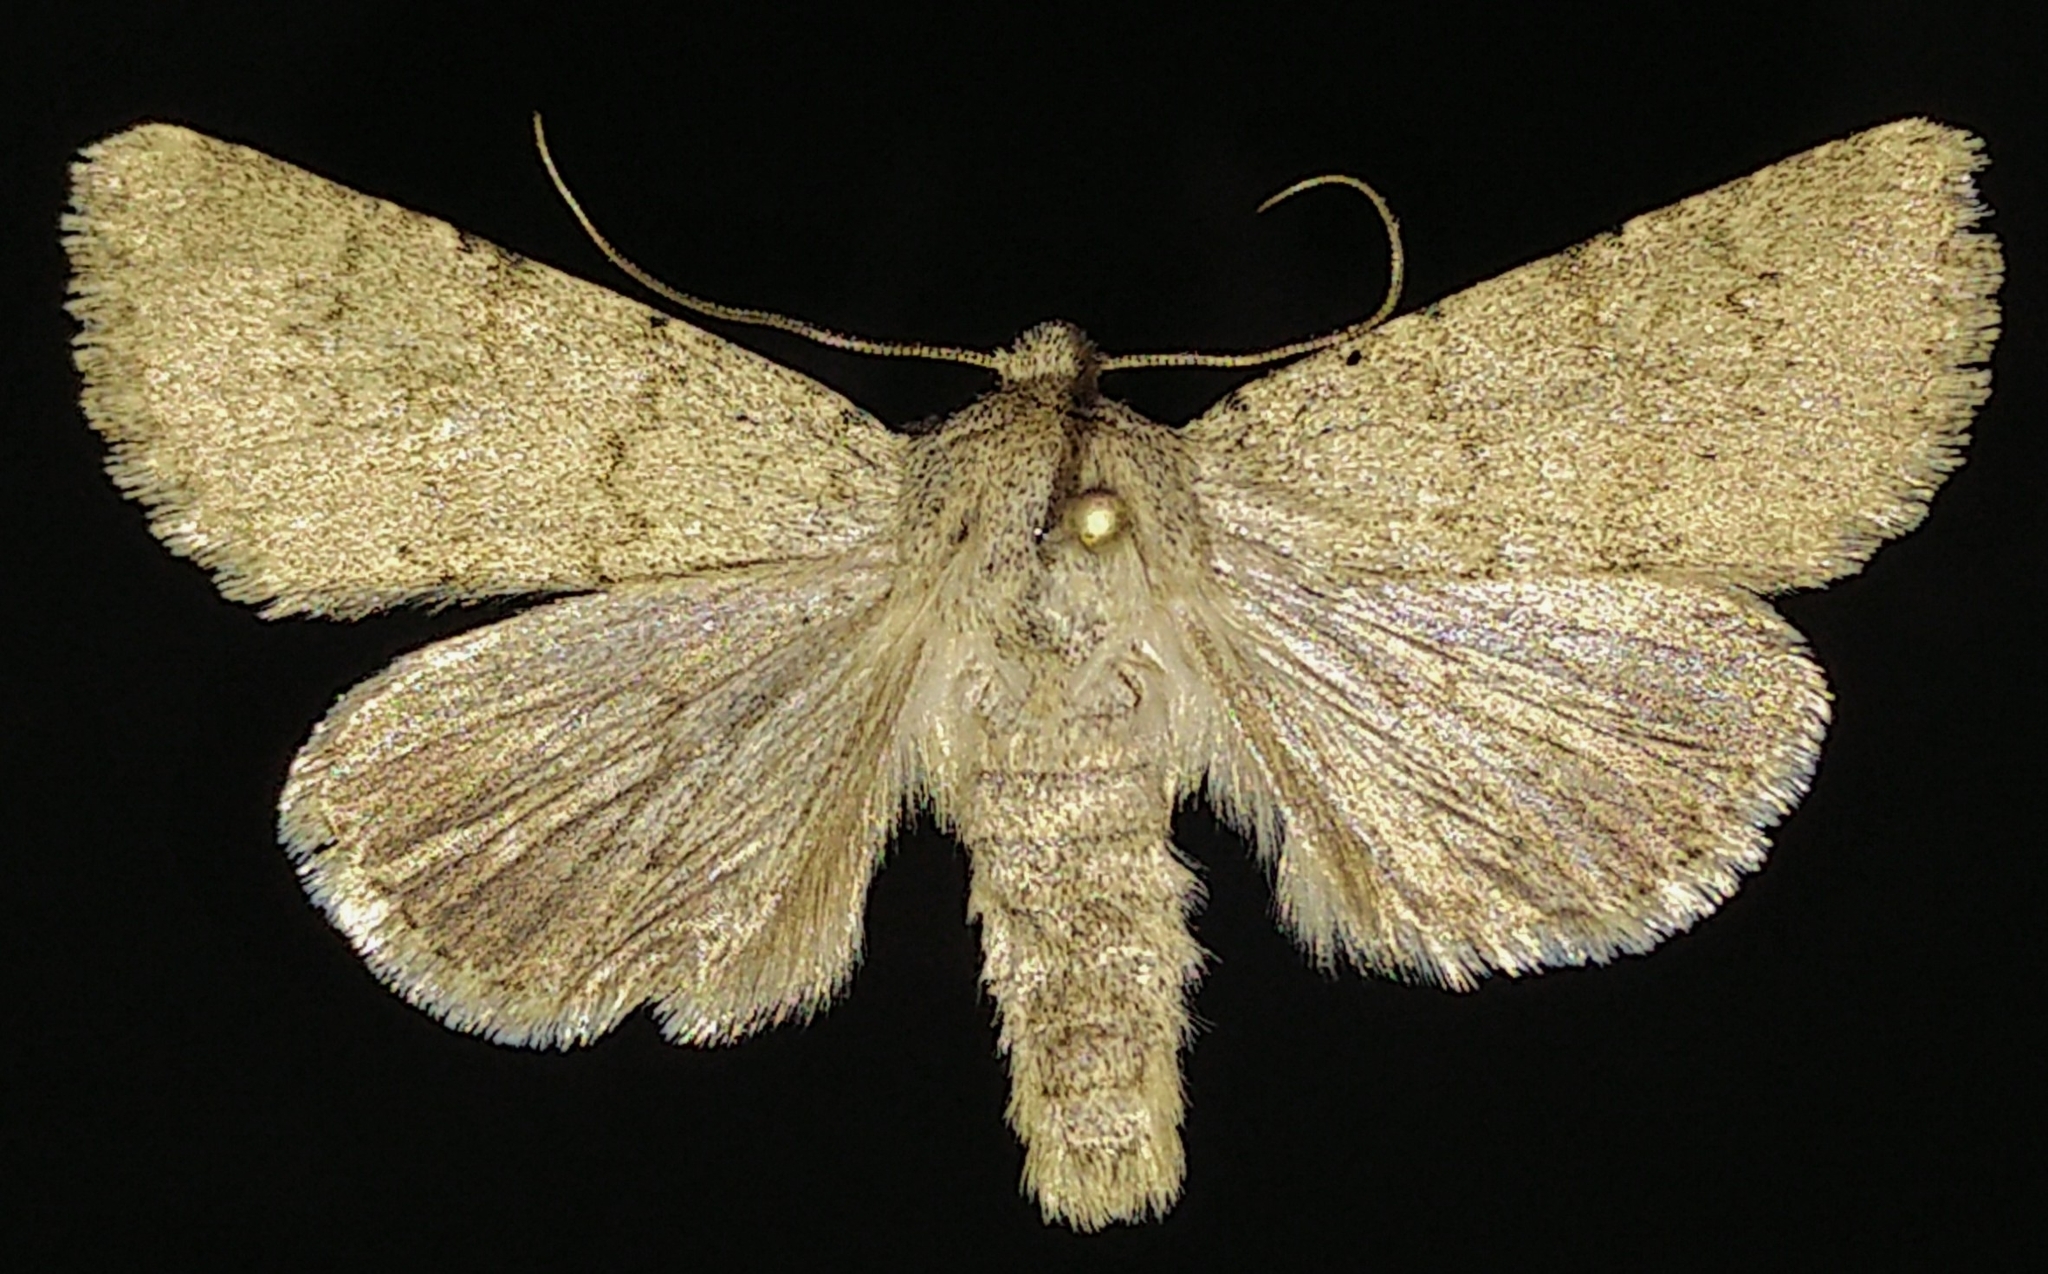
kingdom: Animalia
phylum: Arthropoda
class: Insecta
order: Lepidoptera
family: Noctuidae
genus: Scotogramma
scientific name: Scotogramma submarina
